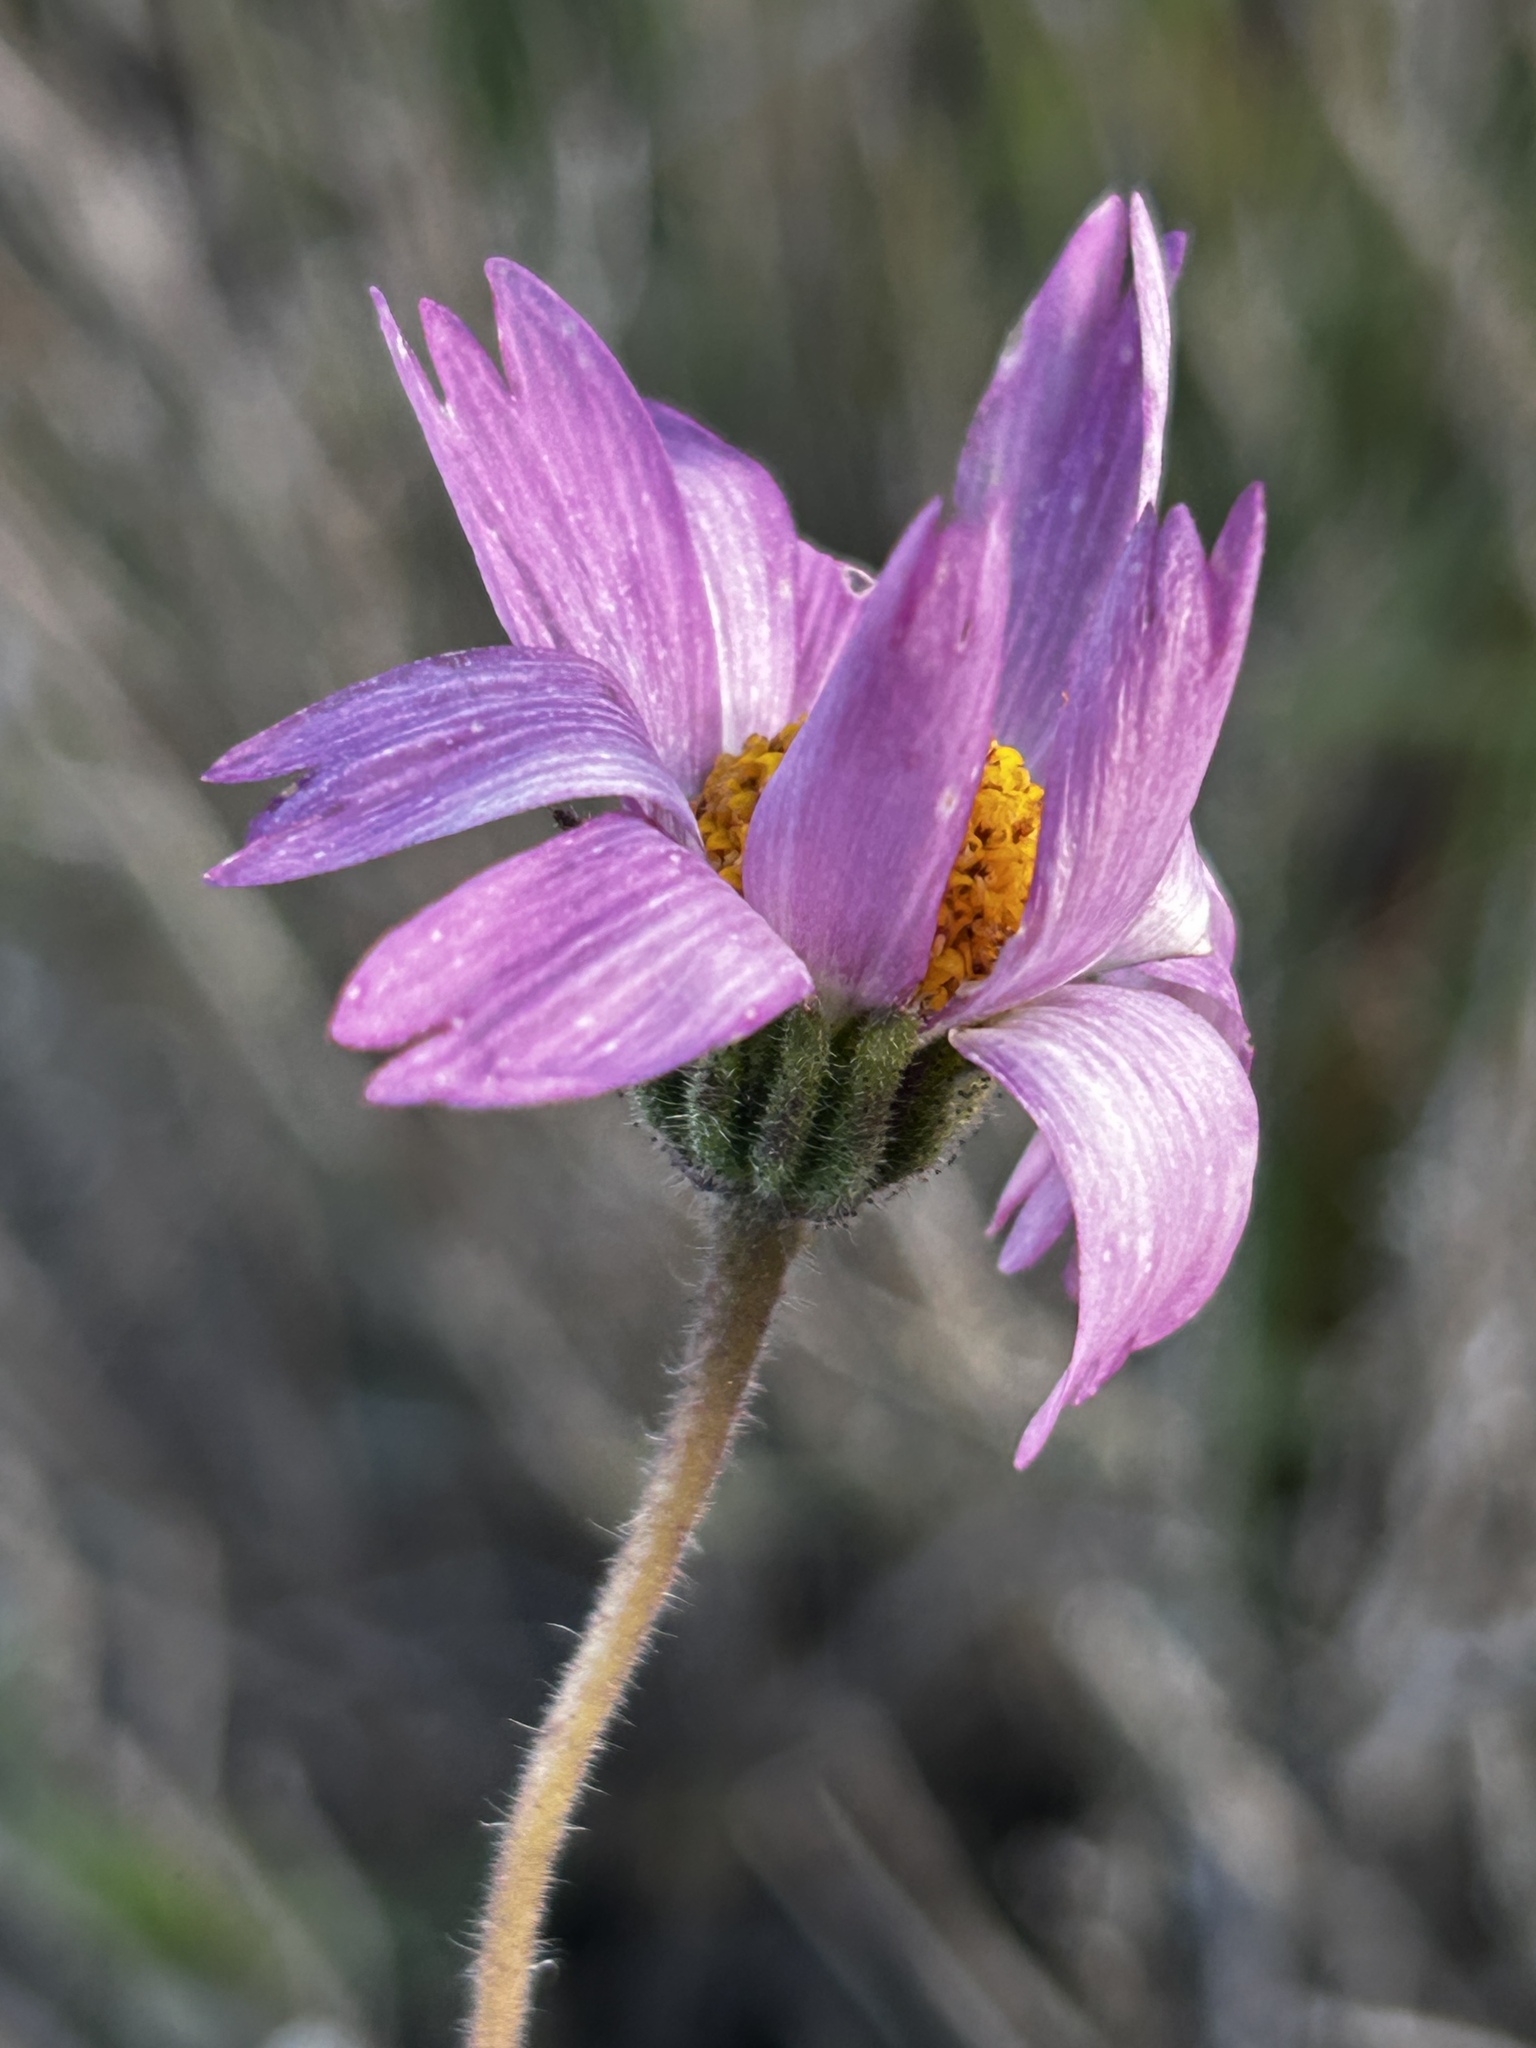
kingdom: Plantae
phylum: Tracheophyta
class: Magnoliopsida
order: Asterales
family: Asteraceae
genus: Layia
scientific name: Layia erubescens
